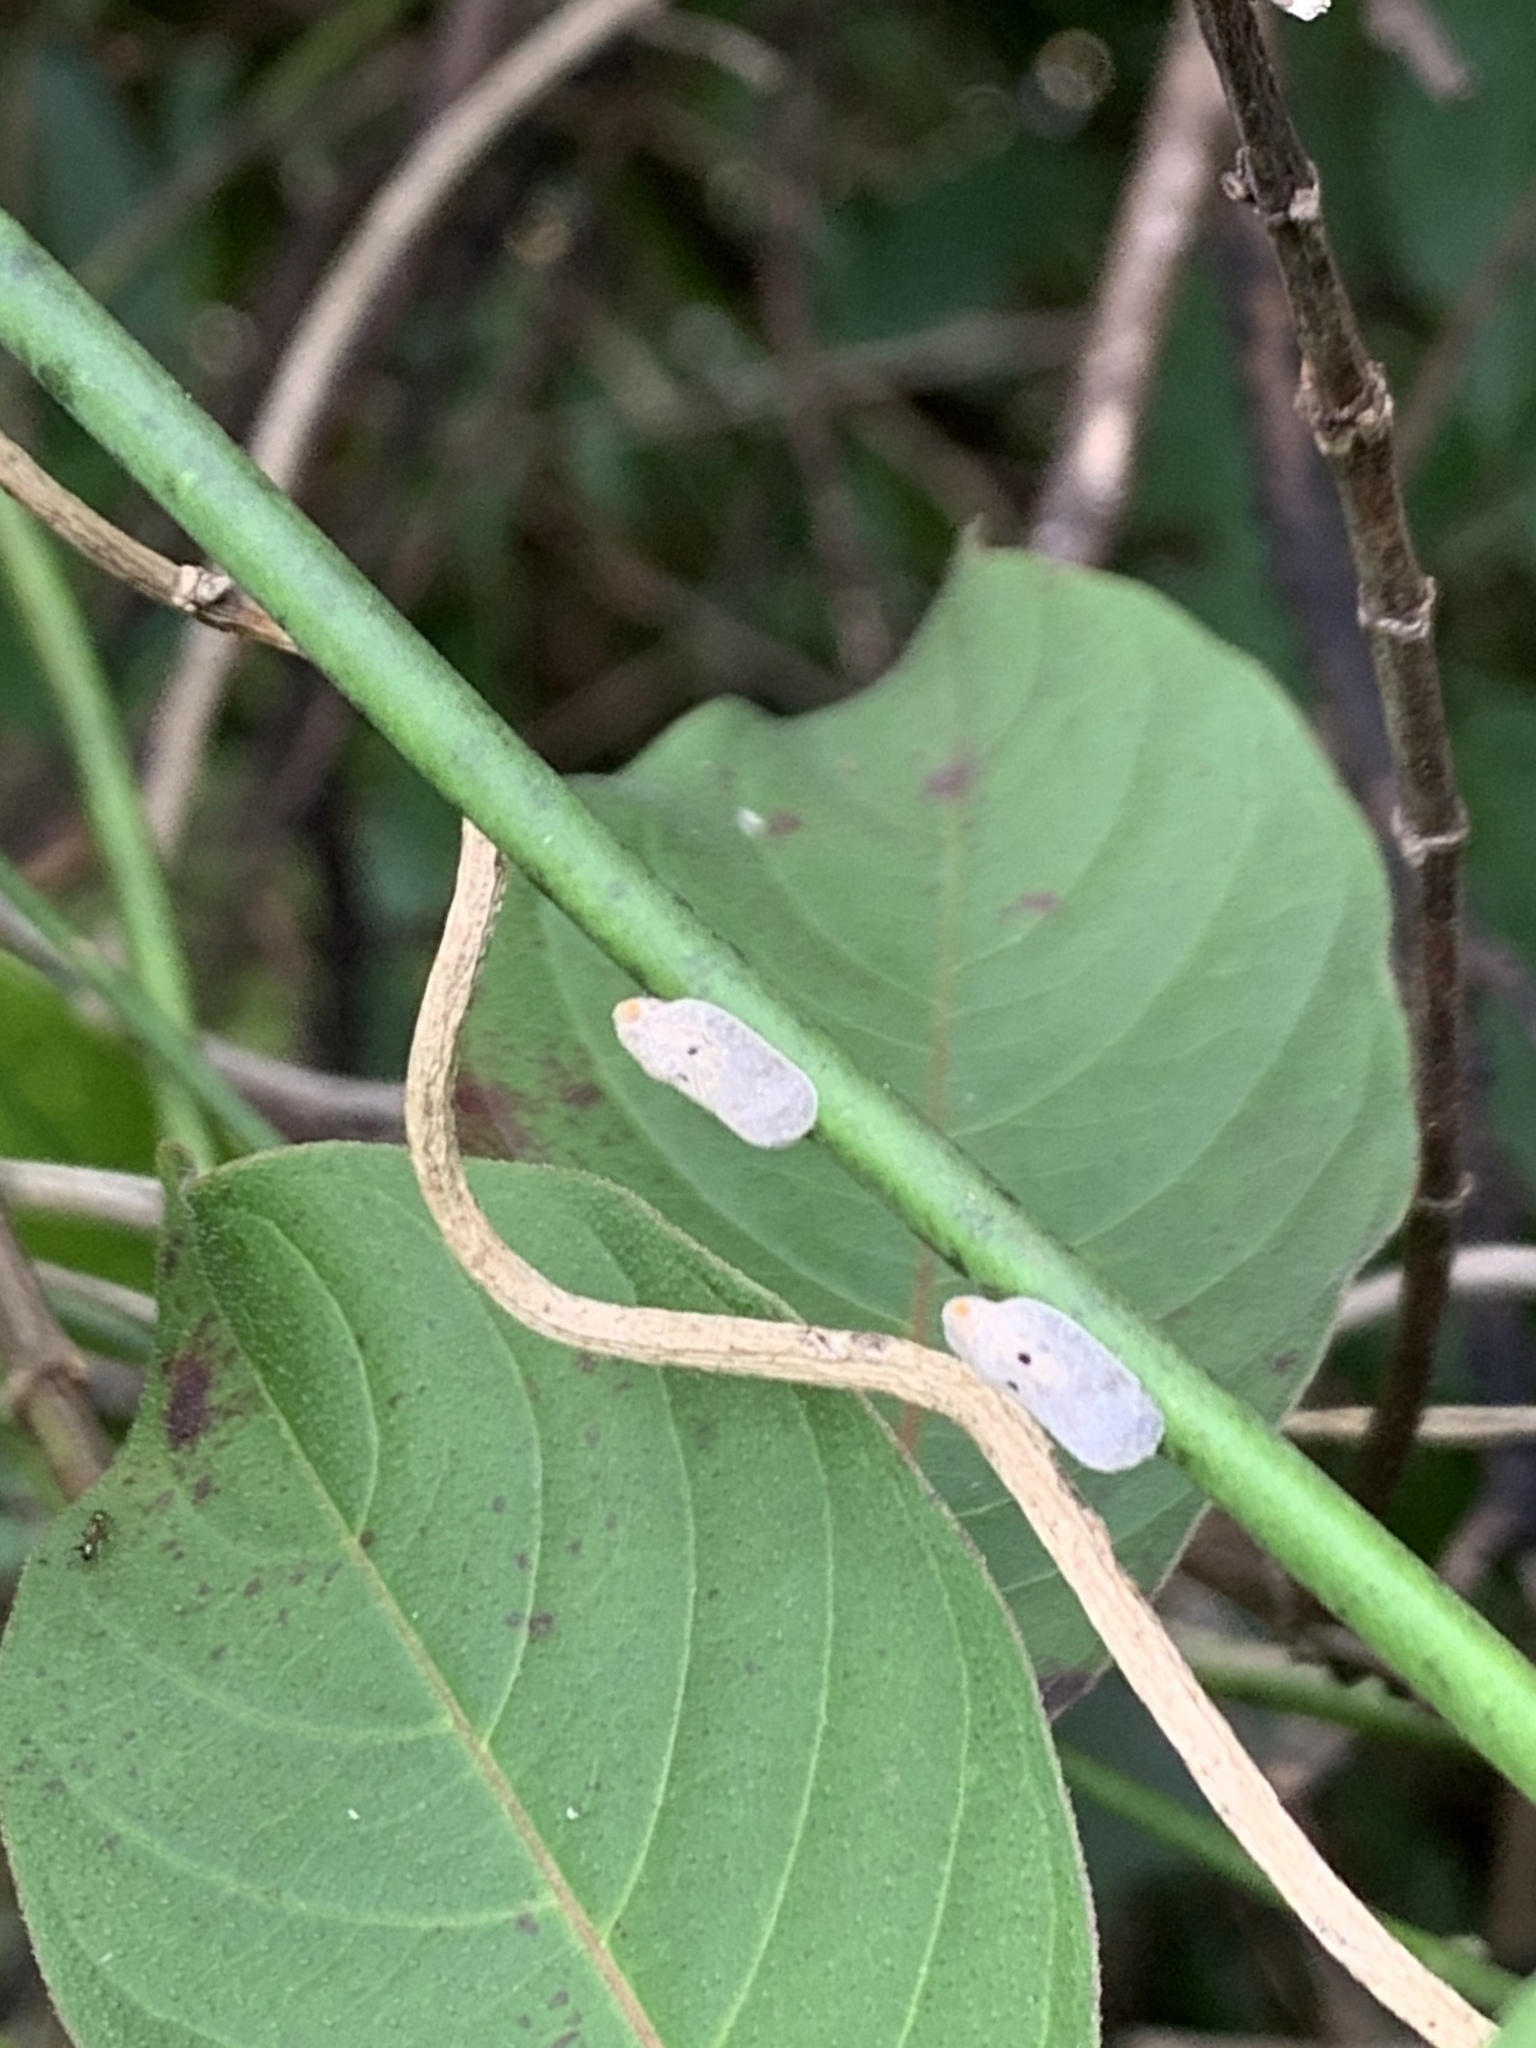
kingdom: Animalia
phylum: Arthropoda
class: Insecta
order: Hemiptera
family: Flatidae
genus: Melormenis
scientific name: Melormenis basalis
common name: Puerto rican planthopper
